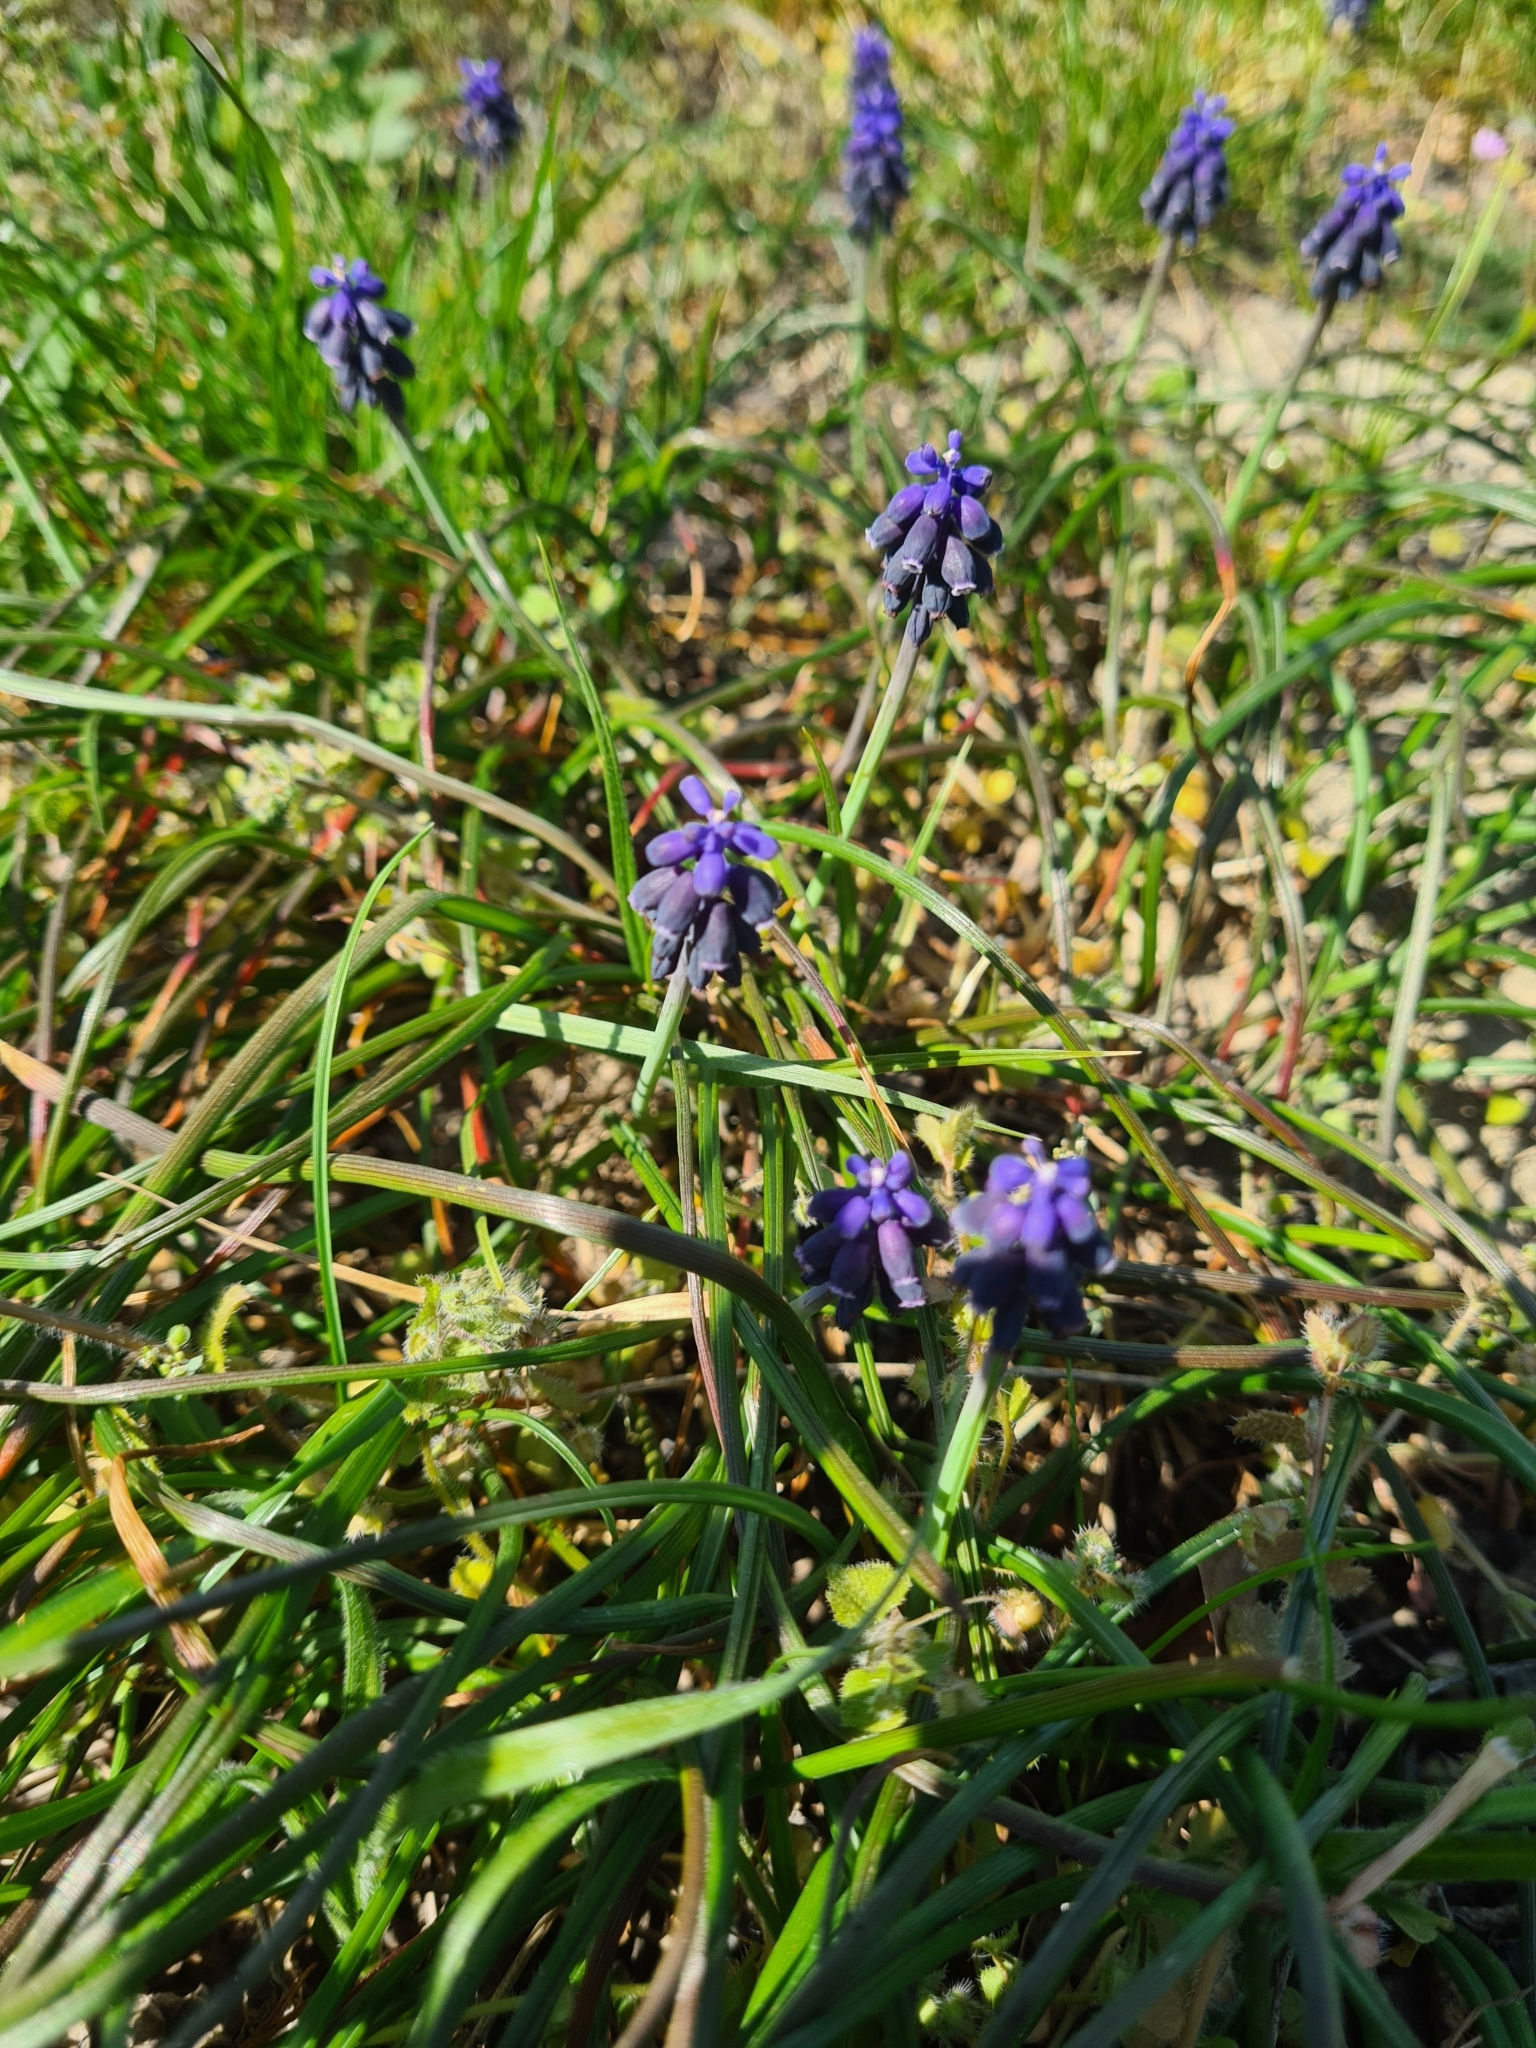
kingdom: Plantae
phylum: Tracheophyta
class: Liliopsida
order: Asparagales
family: Asparagaceae
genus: Muscari
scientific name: Muscari neglectum
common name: Grape-hyacinth
